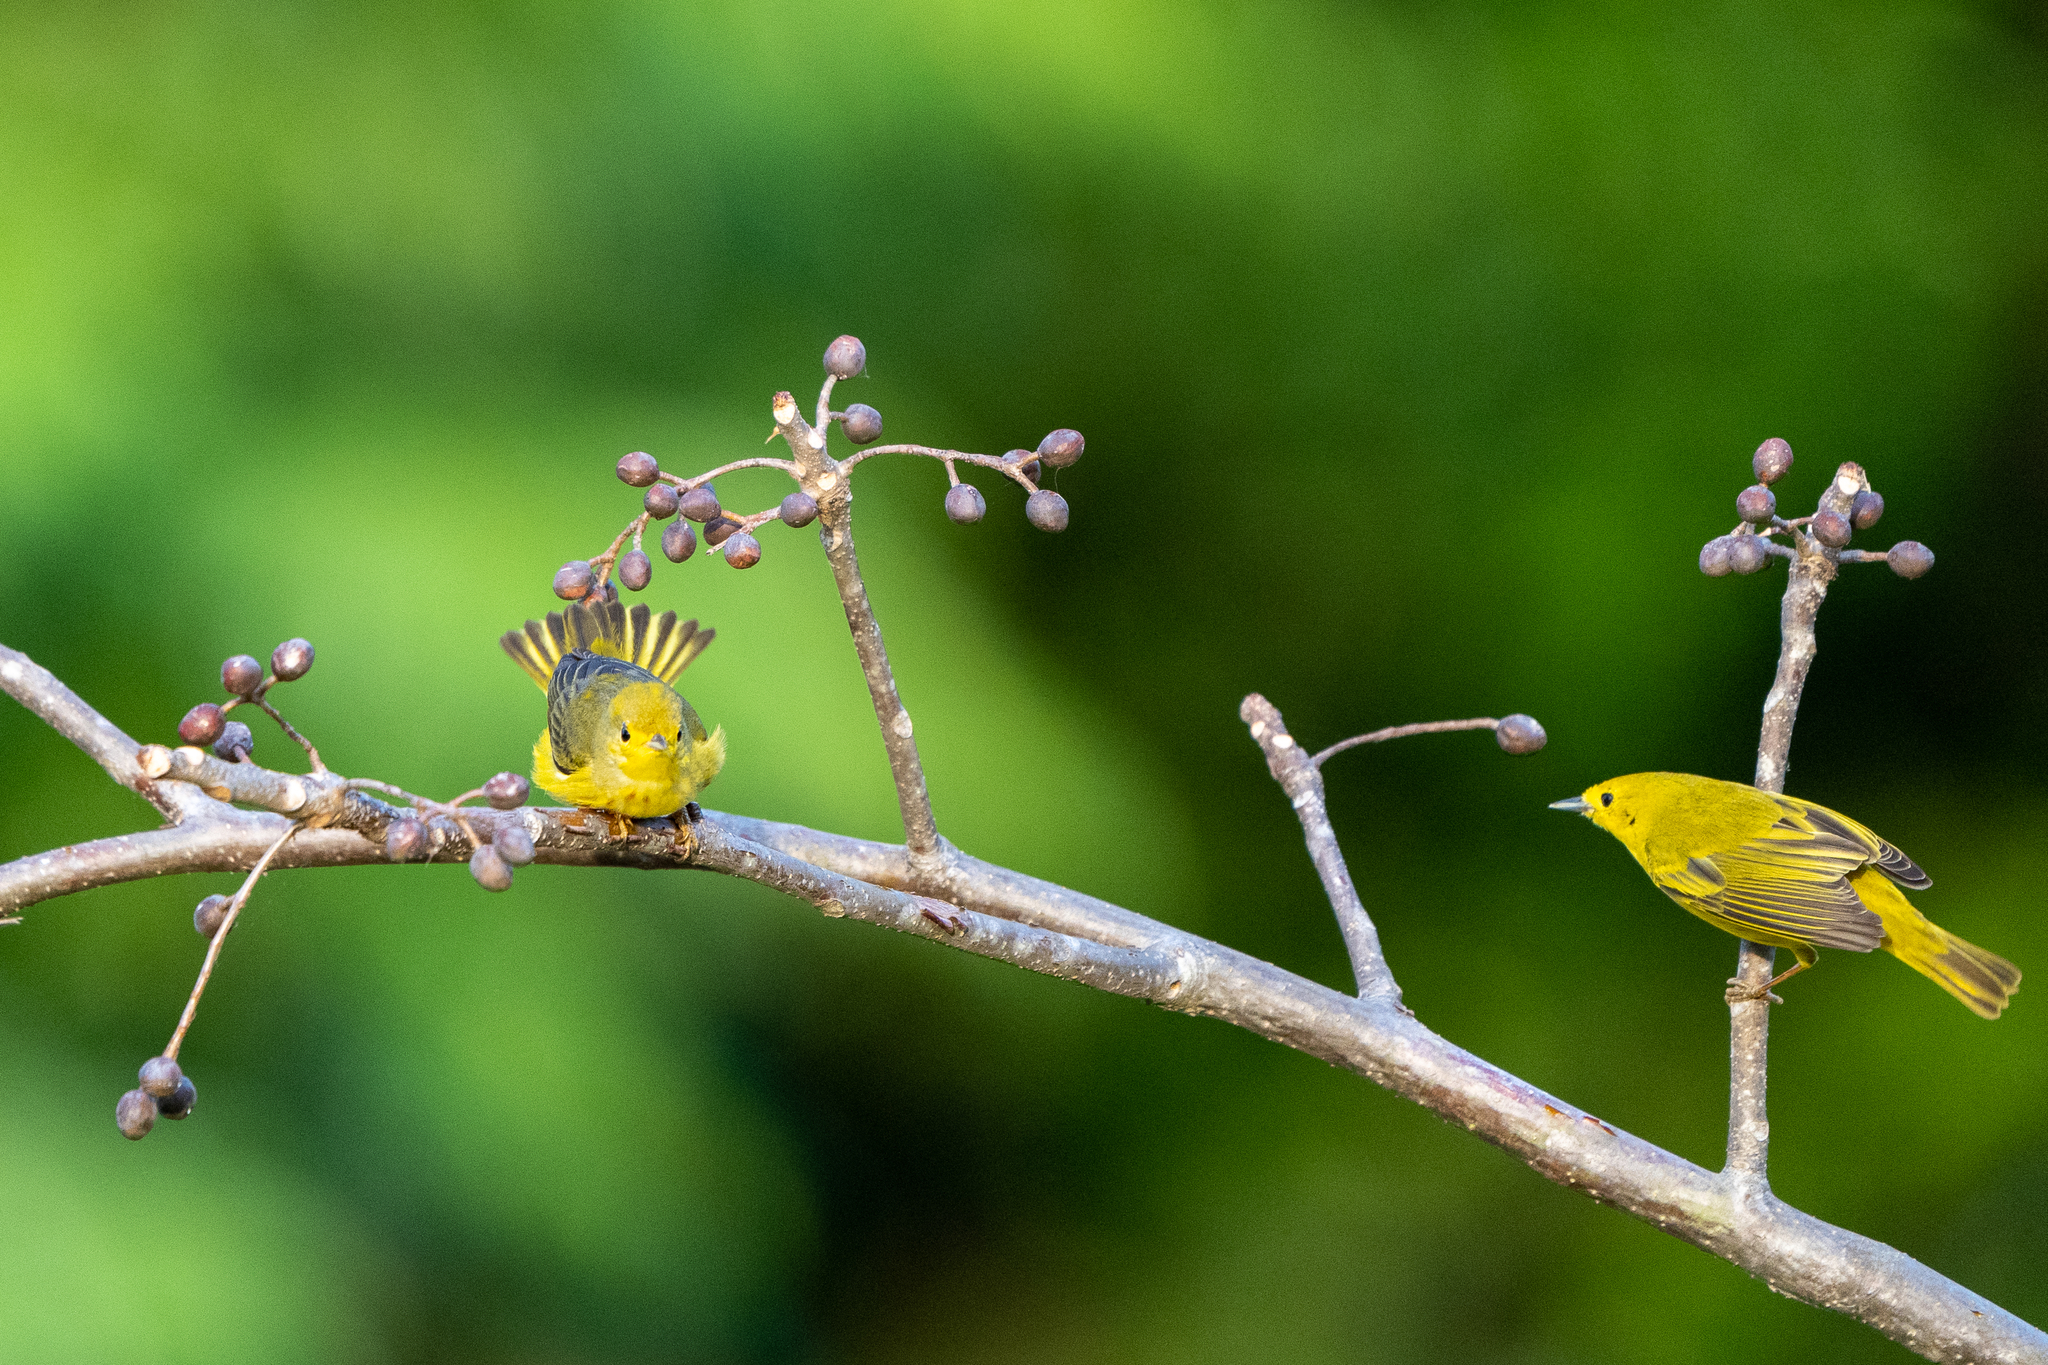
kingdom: Animalia
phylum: Chordata
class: Aves
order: Passeriformes
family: Parulidae
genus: Setophaga
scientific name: Setophaga petechia
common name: Yellow warbler
